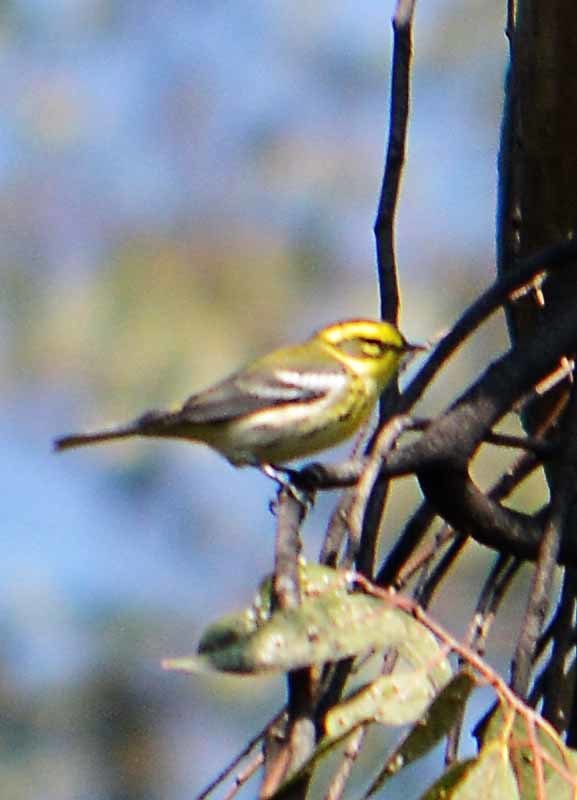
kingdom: Animalia
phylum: Chordata
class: Aves
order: Passeriformes
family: Parulidae
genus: Setophaga
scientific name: Setophaga townsendi
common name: Townsend's warbler
